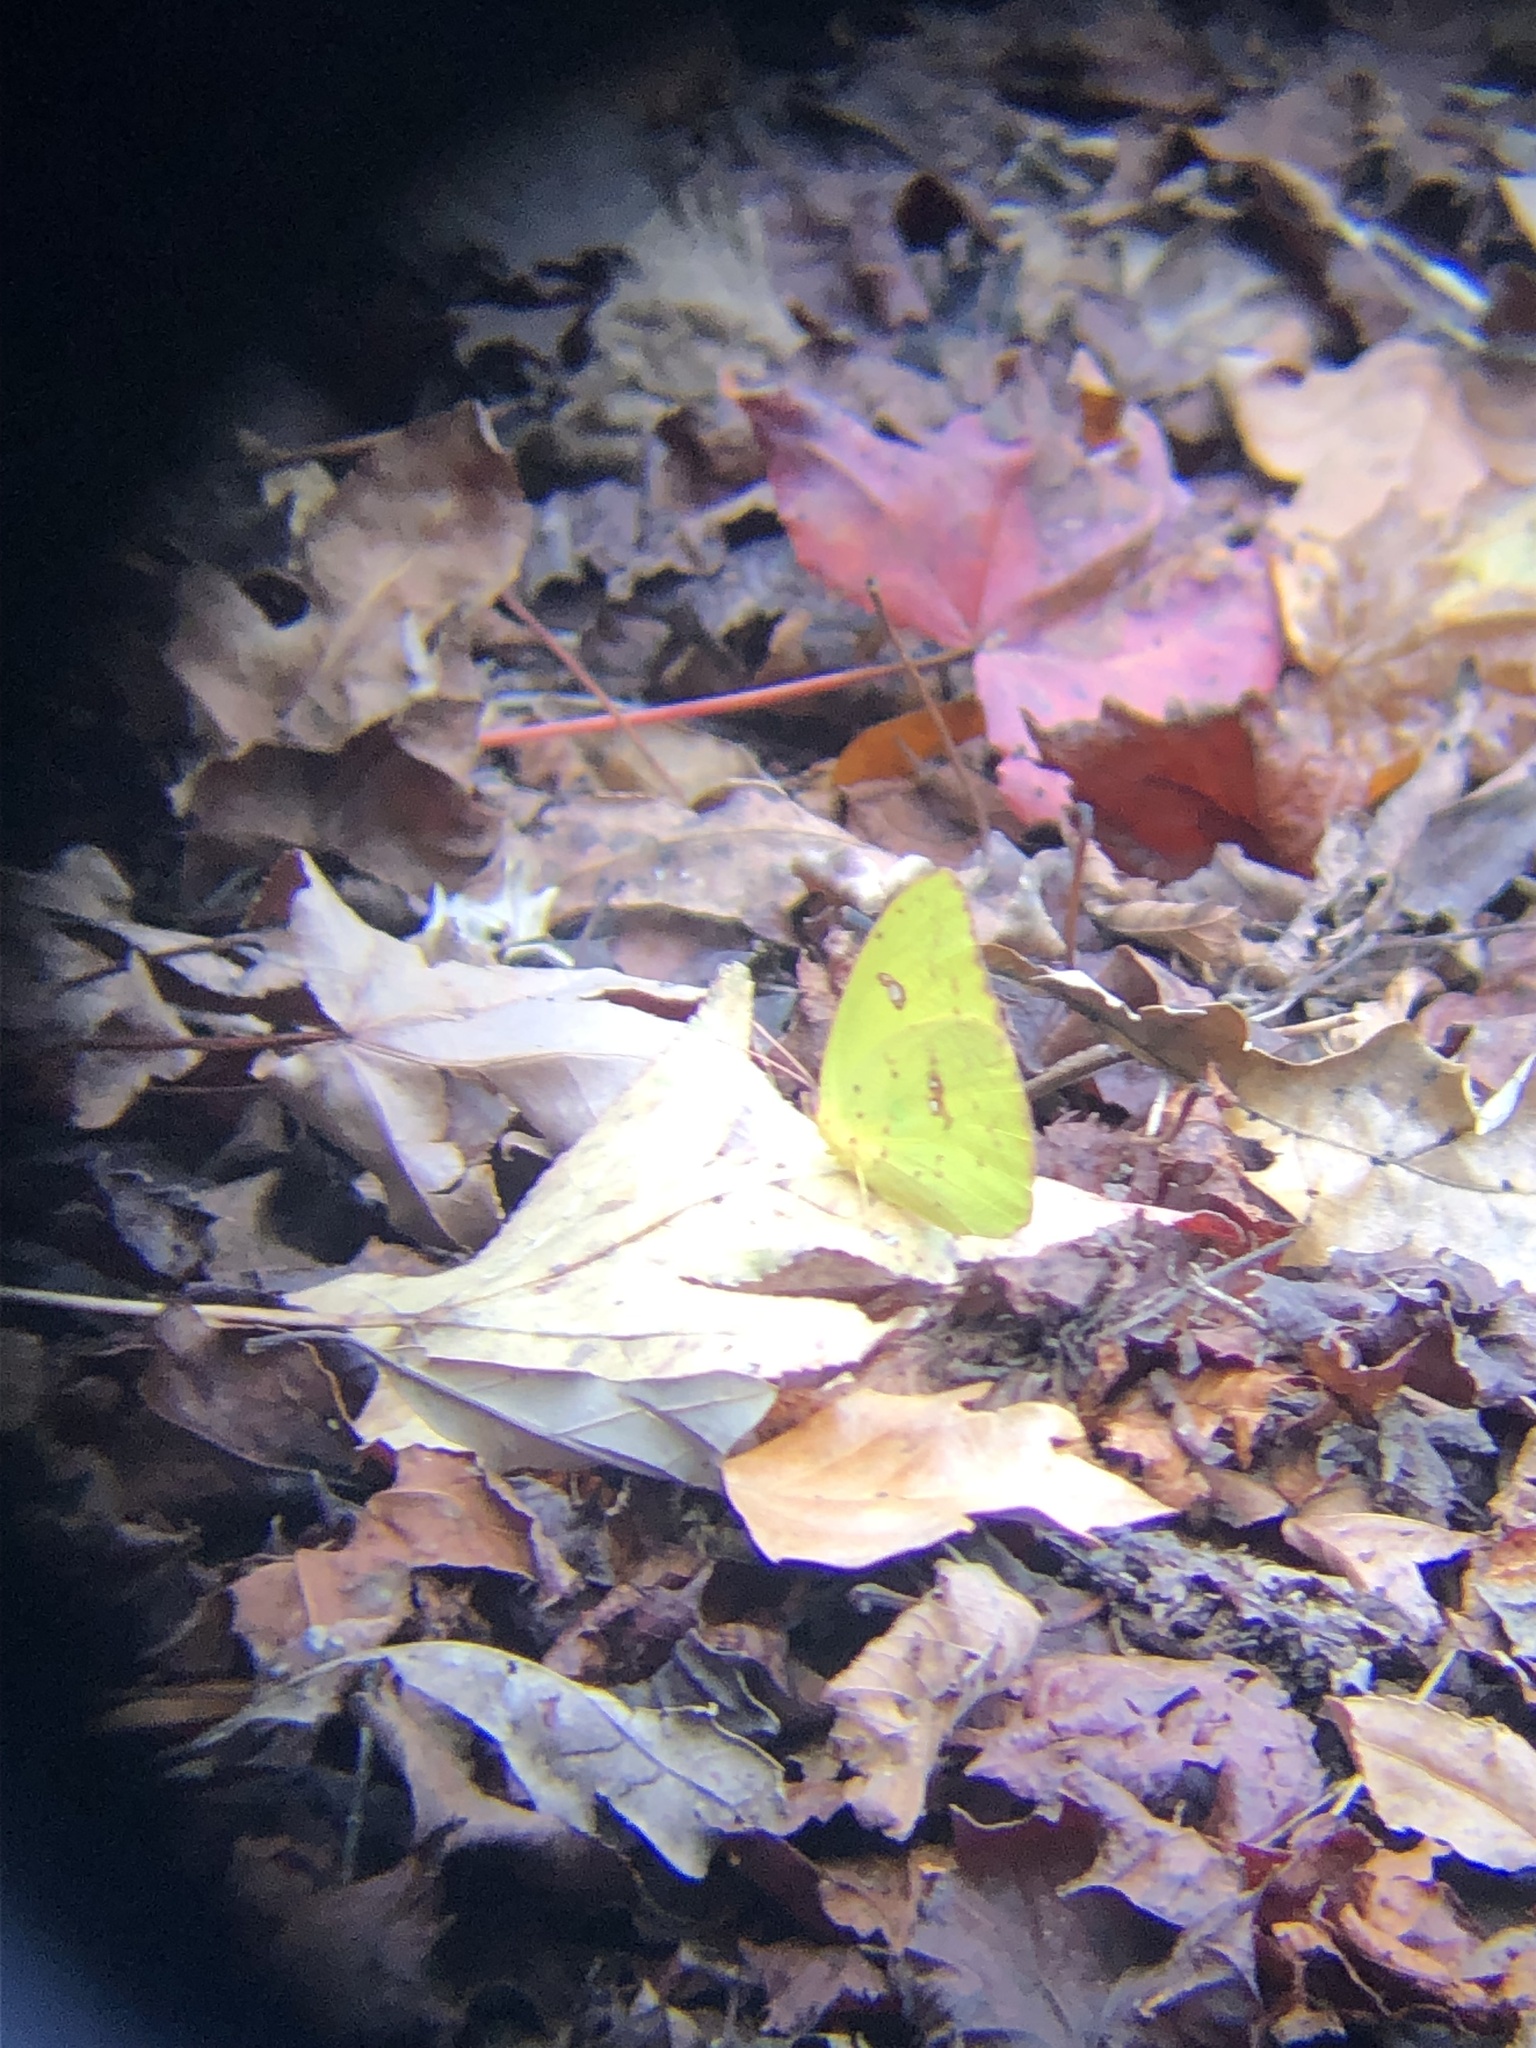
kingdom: Animalia
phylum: Arthropoda
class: Insecta
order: Lepidoptera
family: Pieridae
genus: Phoebis
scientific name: Phoebis sennae
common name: Cloudless sulphur
